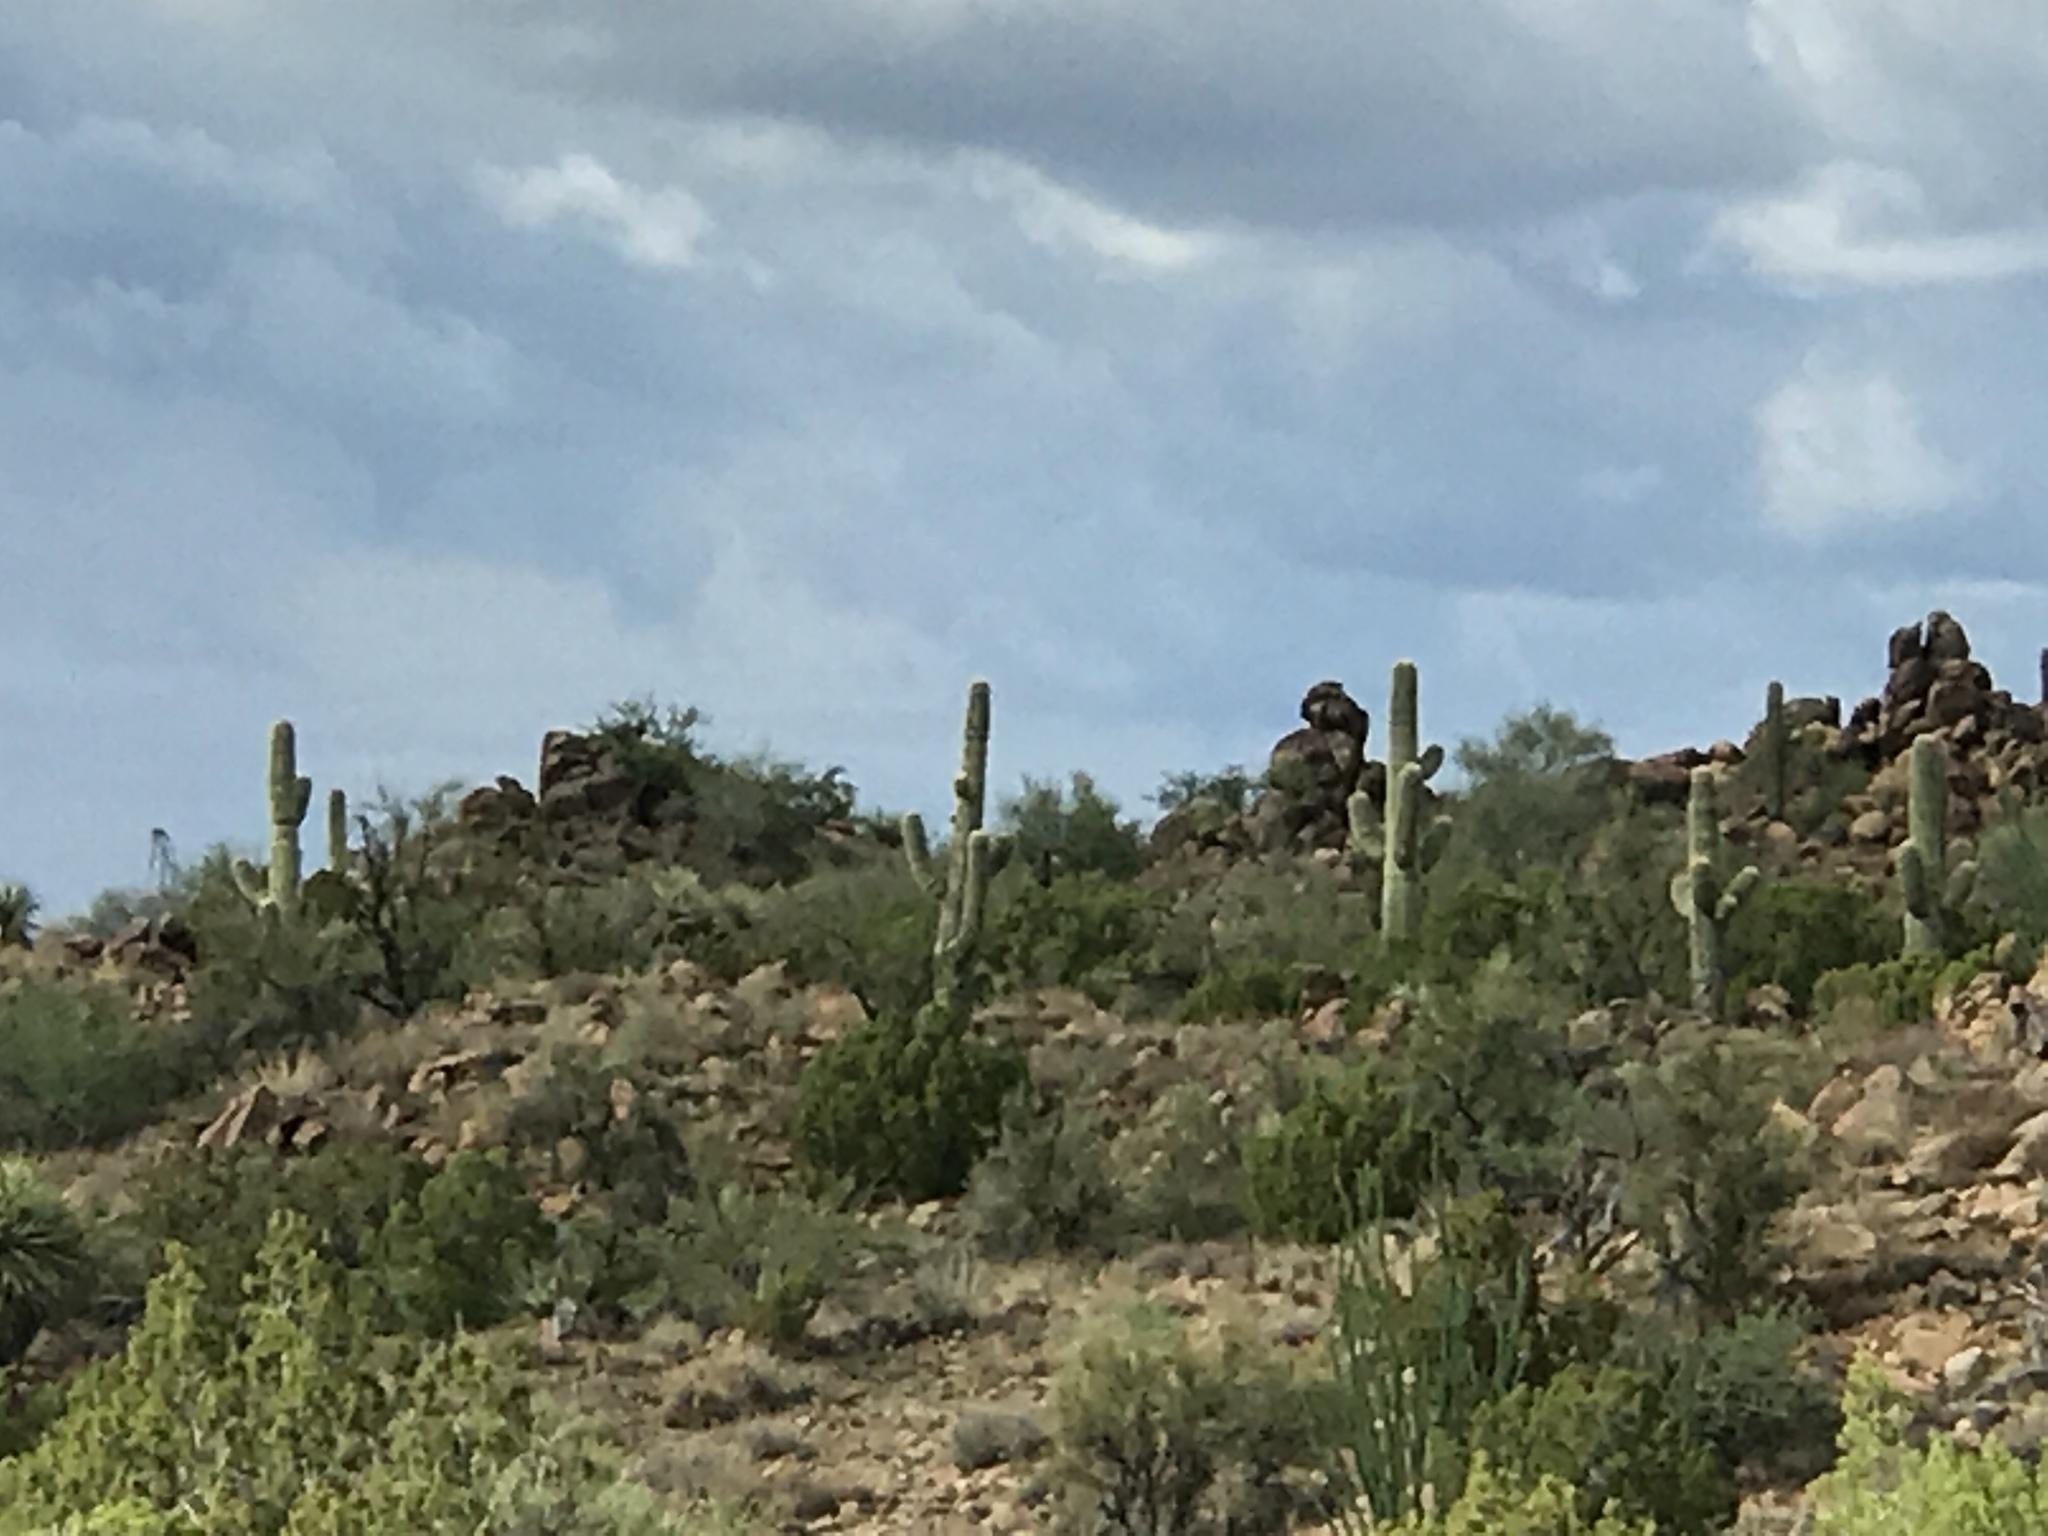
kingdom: Plantae
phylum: Tracheophyta
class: Magnoliopsida
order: Caryophyllales
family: Cactaceae
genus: Carnegiea
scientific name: Carnegiea gigantea
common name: Saguaro
